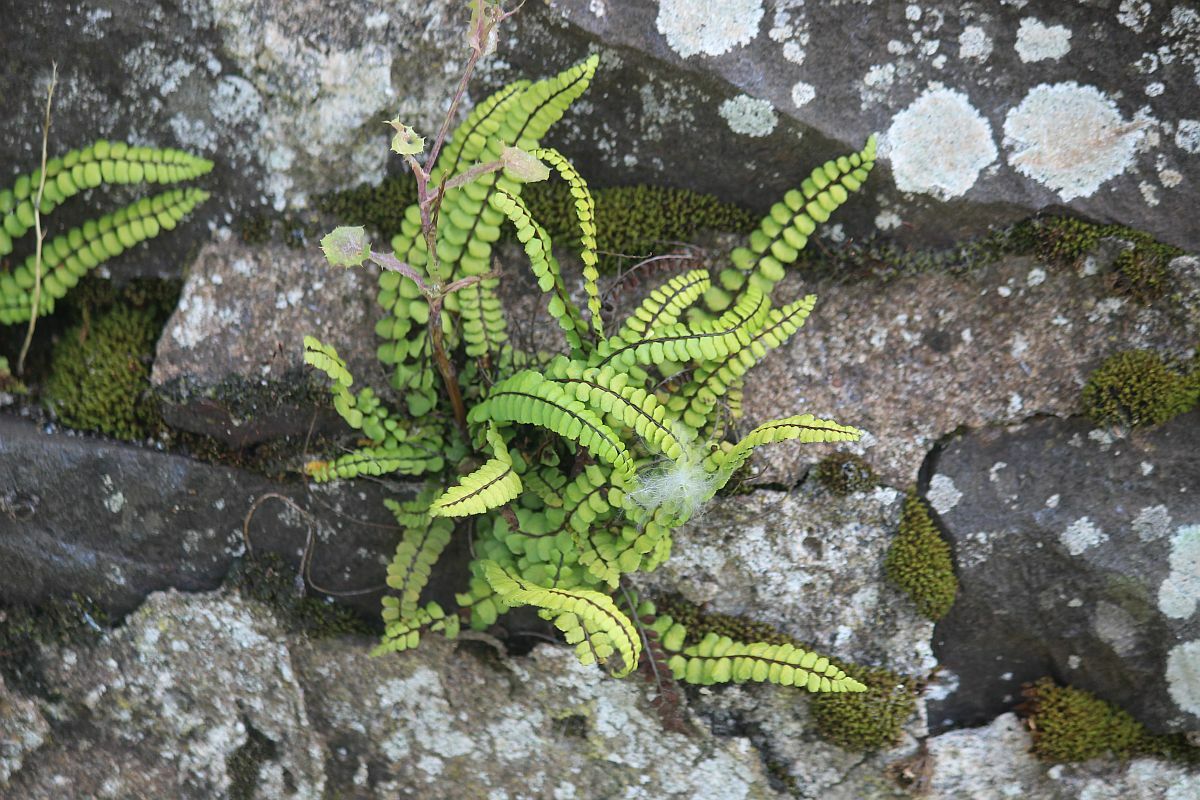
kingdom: Plantae
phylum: Tracheophyta
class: Polypodiopsida
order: Polypodiales
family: Aspleniaceae
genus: Asplenium
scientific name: Asplenium trichomanes
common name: Maidenhair spleenwort
